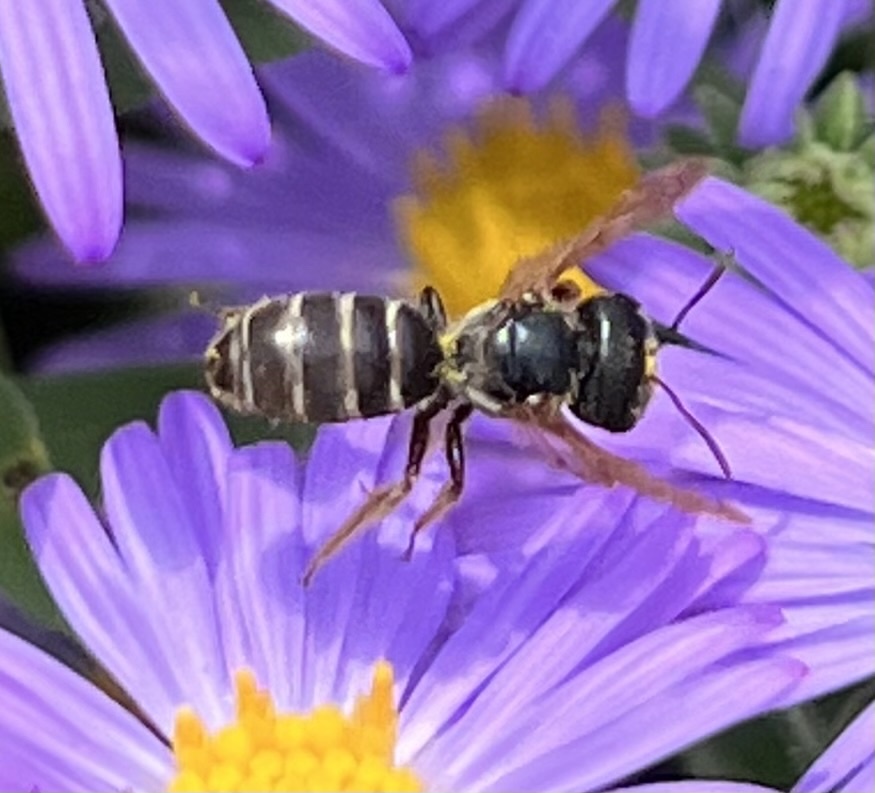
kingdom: Animalia
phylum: Arthropoda
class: Insecta
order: Hymenoptera
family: Halictidae
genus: Halictus
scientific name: Halictus ligatus
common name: Ligated furrow bee
